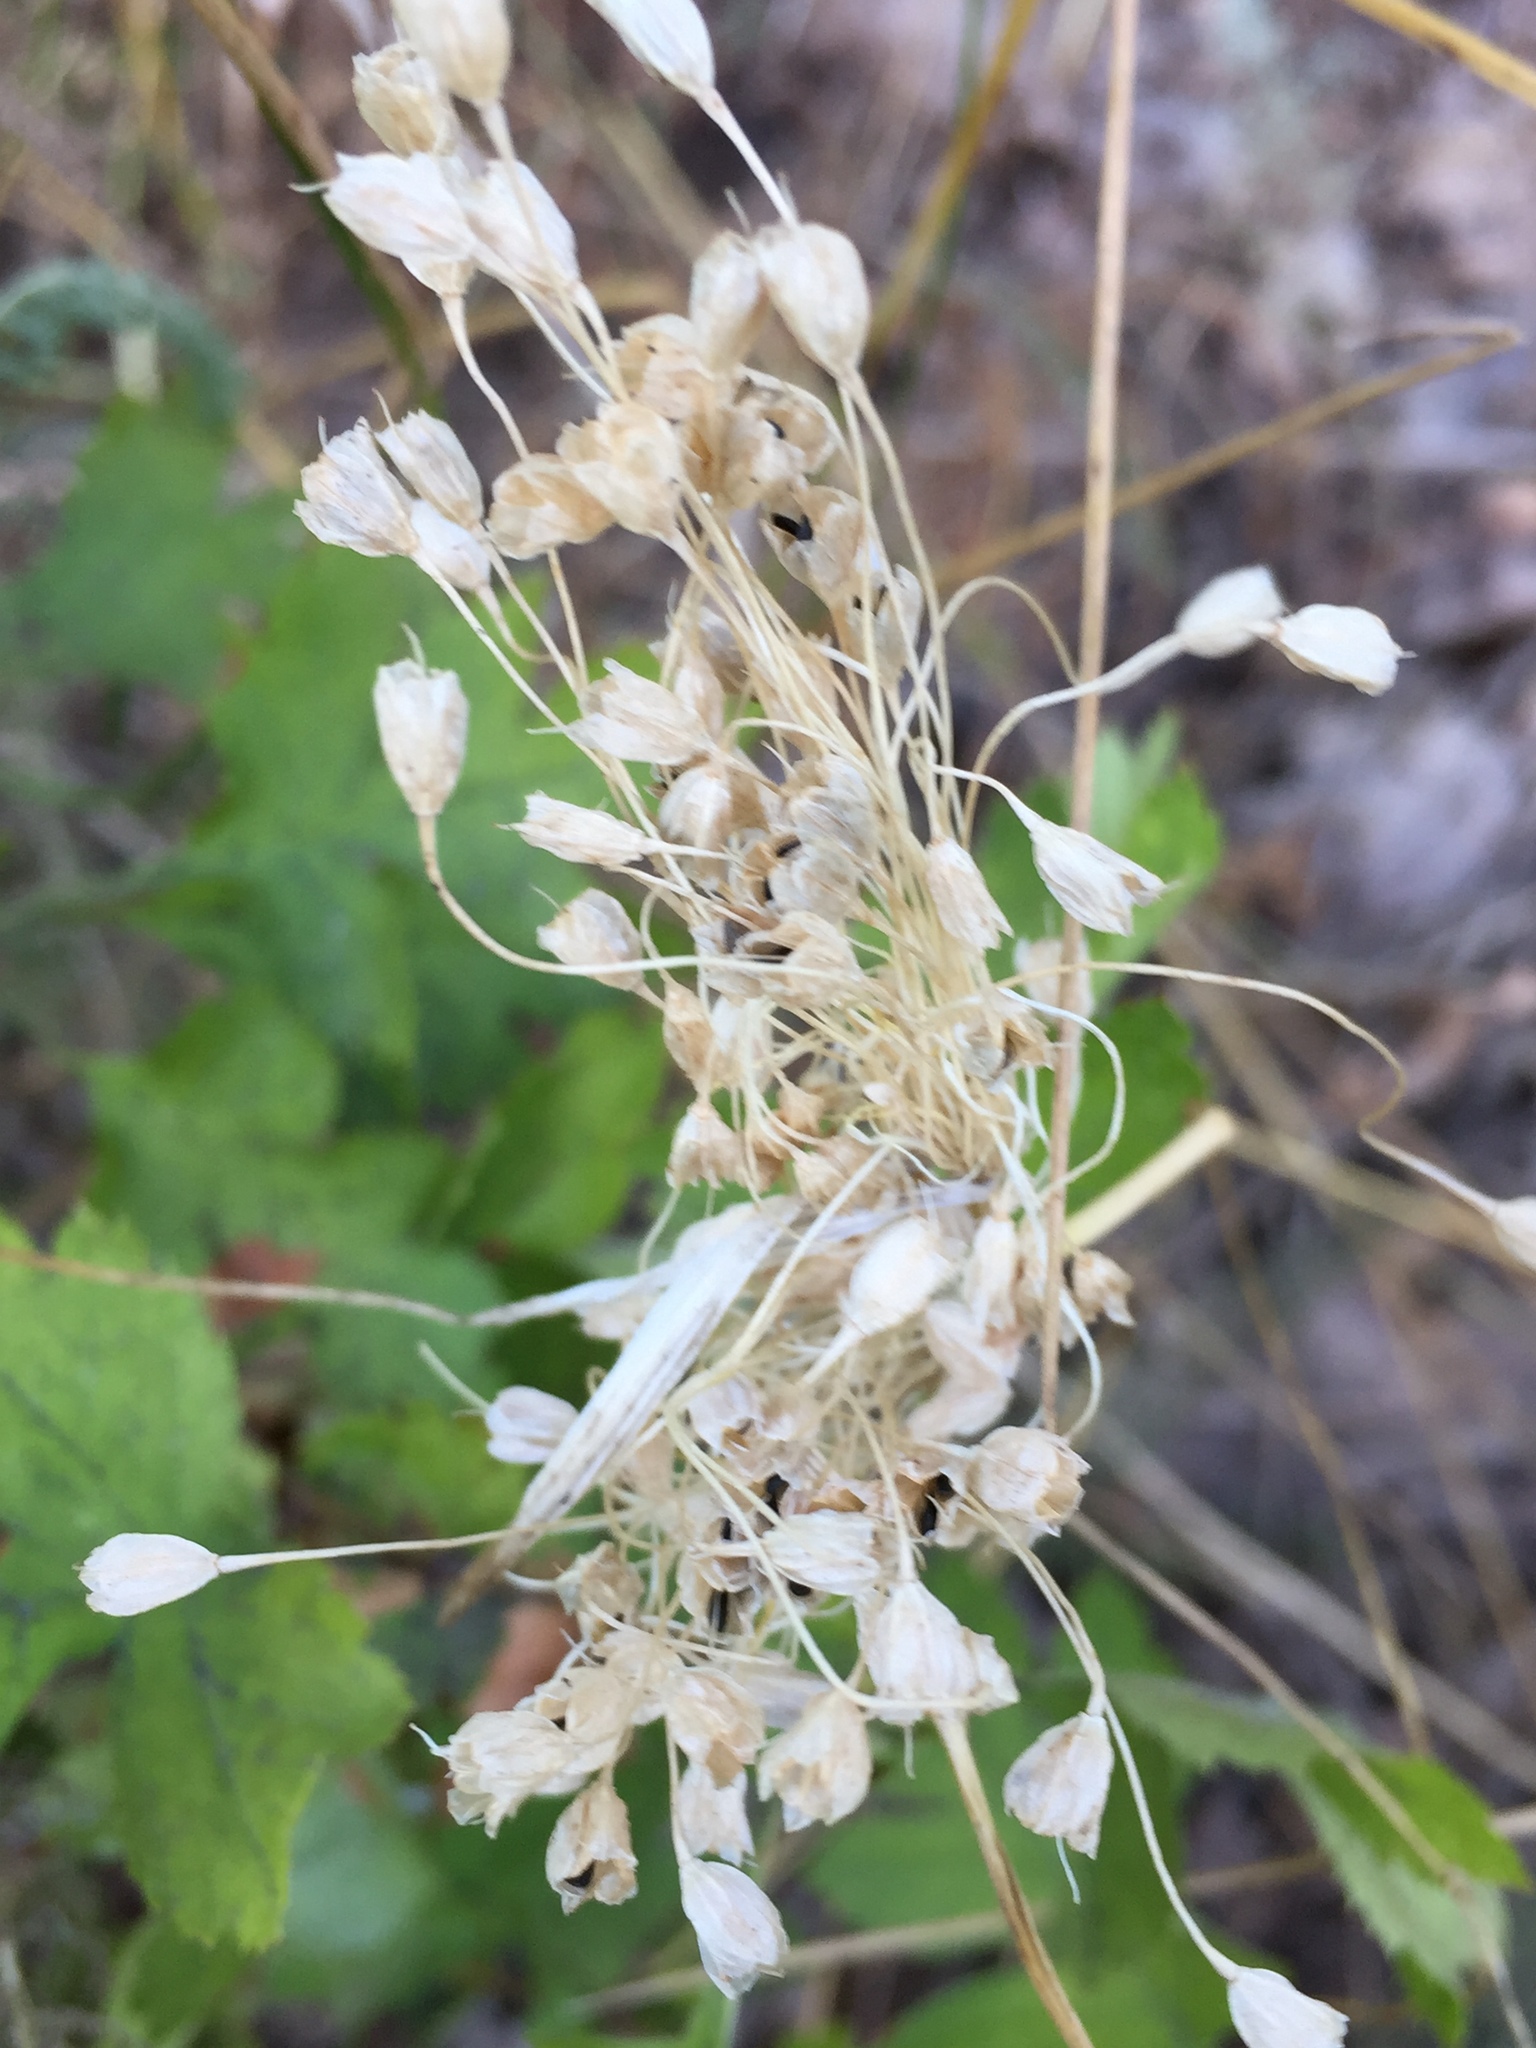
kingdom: Plantae
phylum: Tracheophyta
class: Liliopsida
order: Asparagales
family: Amaryllidaceae
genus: Allium
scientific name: Allium flavum
